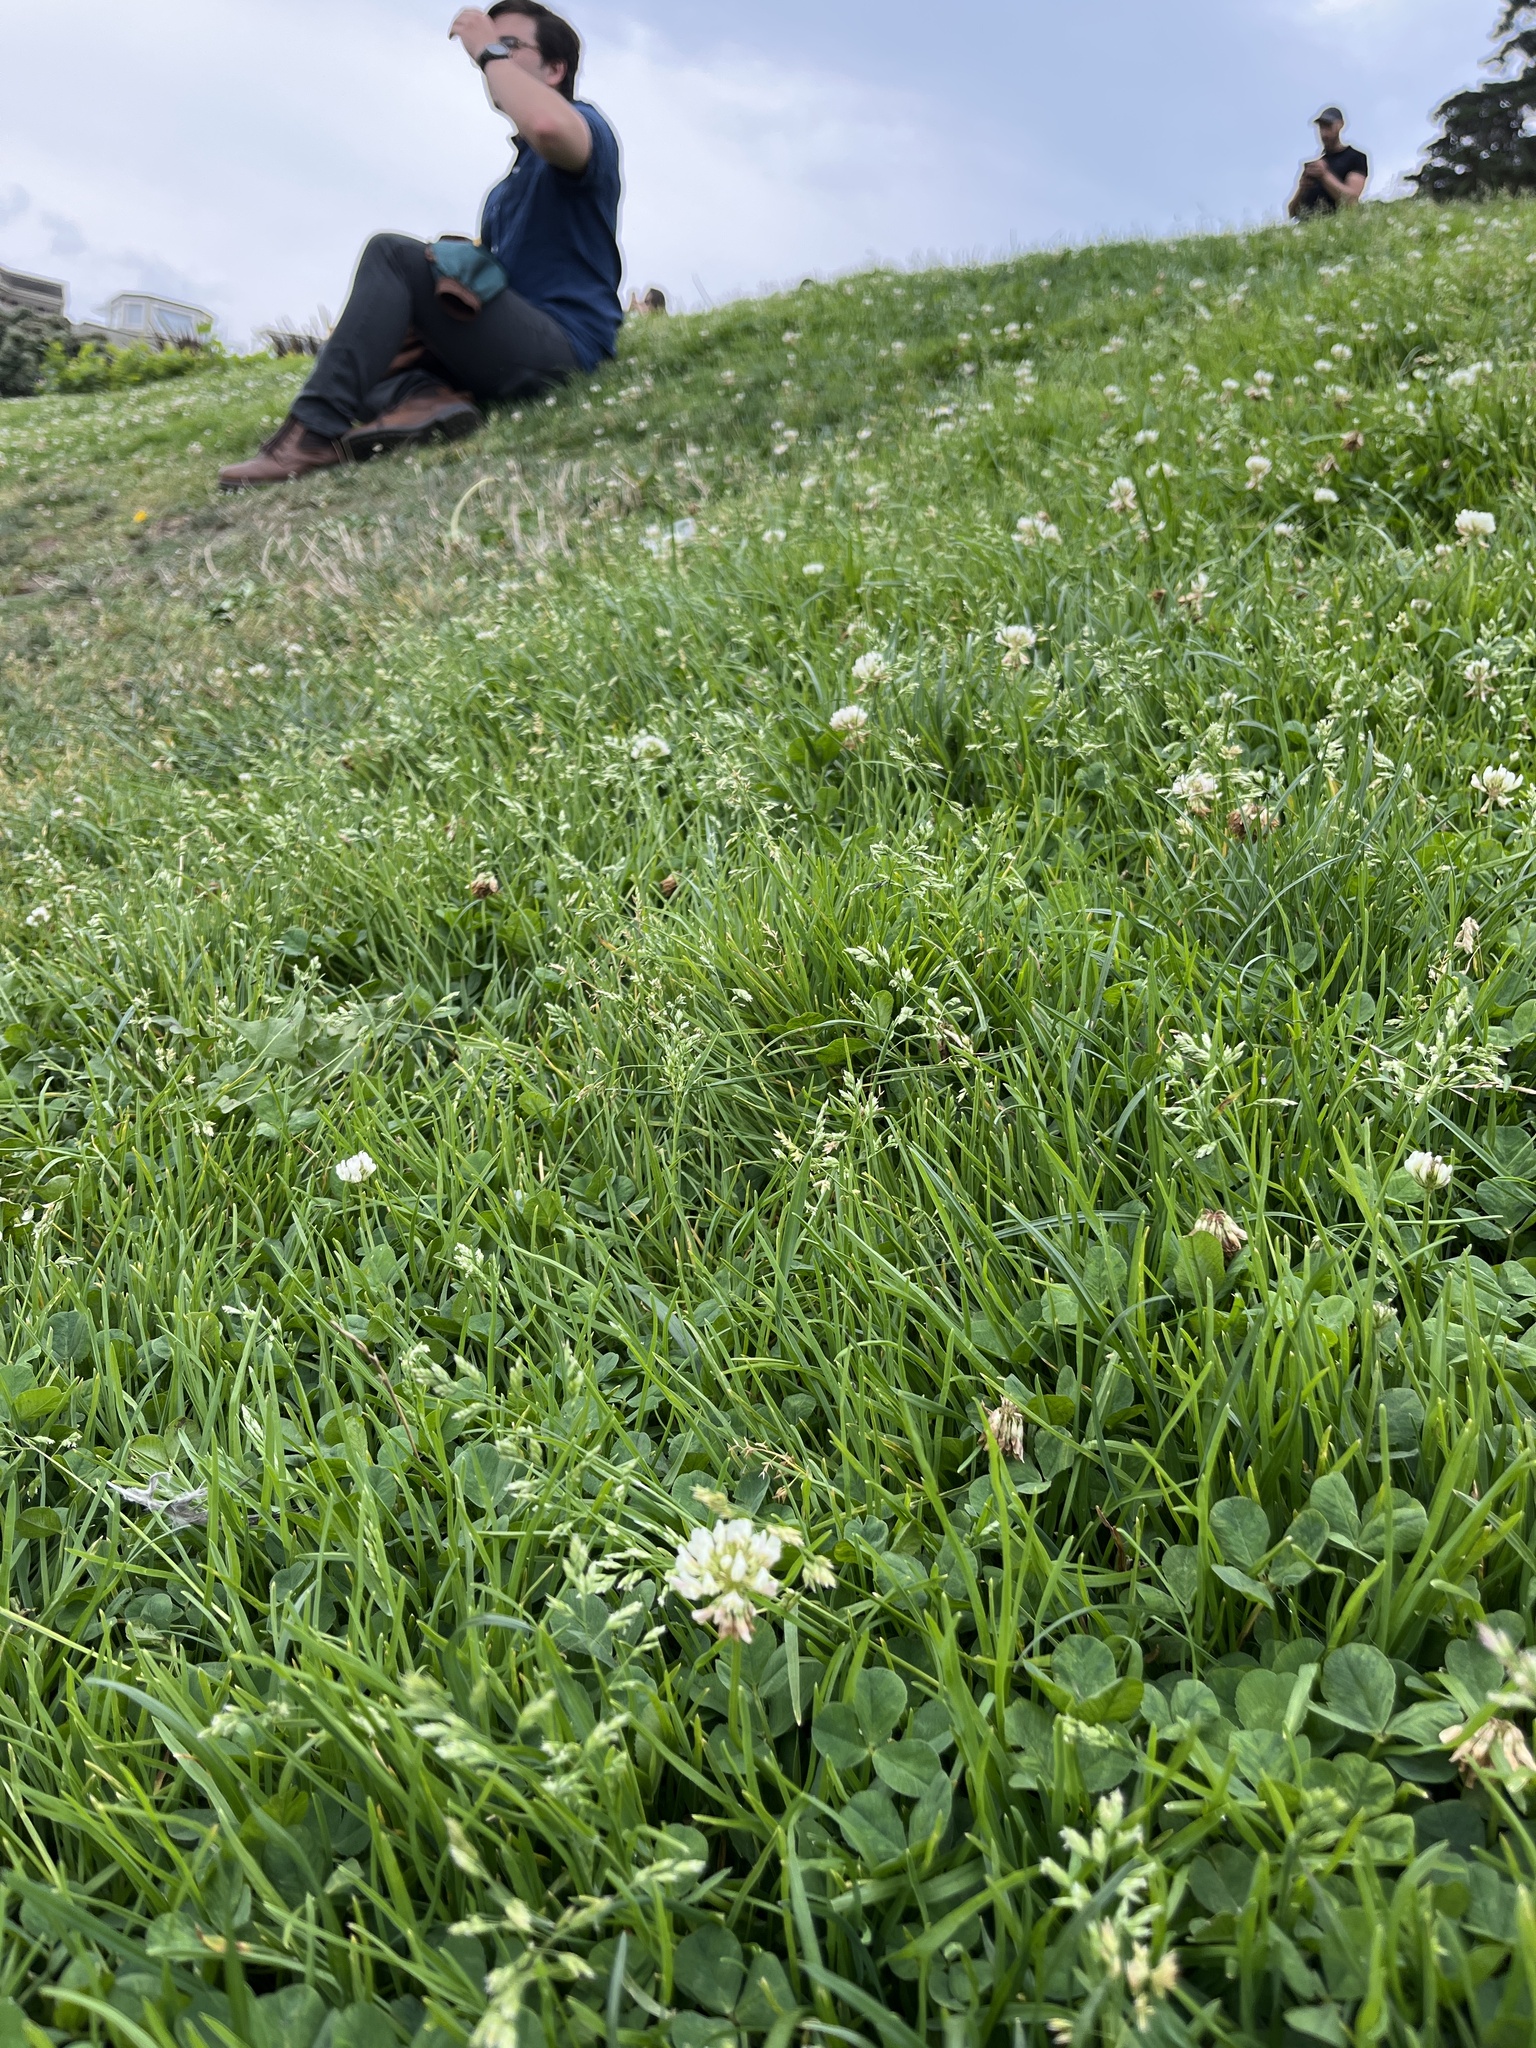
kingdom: Plantae
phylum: Tracheophyta
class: Magnoliopsida
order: Fabales
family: Fabaceae
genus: Trifolium
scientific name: Trifolium repens
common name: White clover
